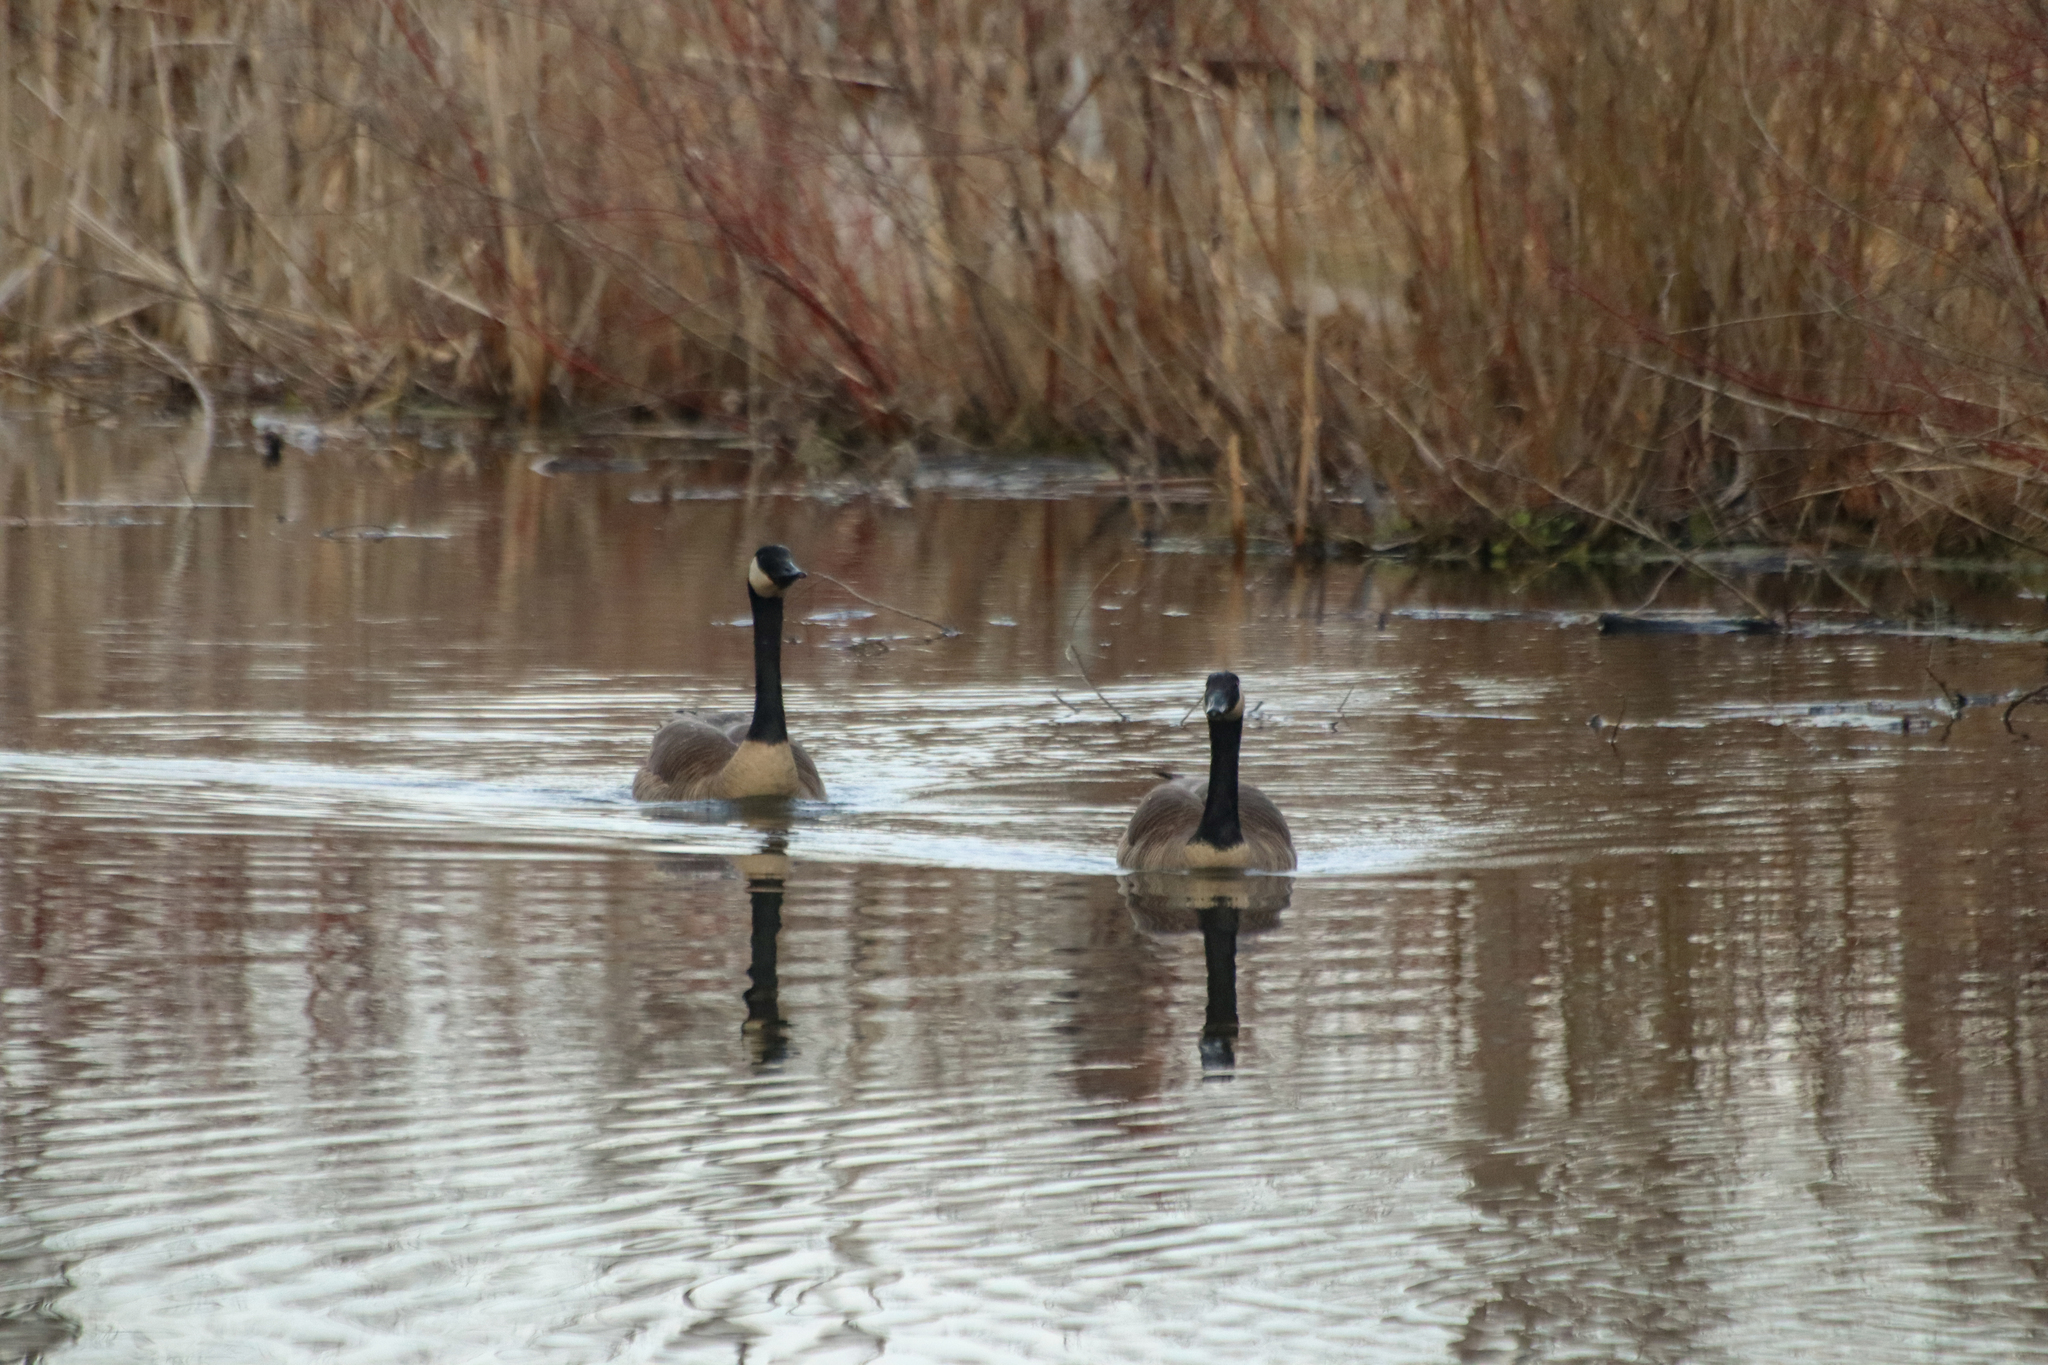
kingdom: Animalia
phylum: Chordata
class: Aves
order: Anseriformes
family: Anatidae
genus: Branta
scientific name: Branta canadensis
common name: Canada goose
